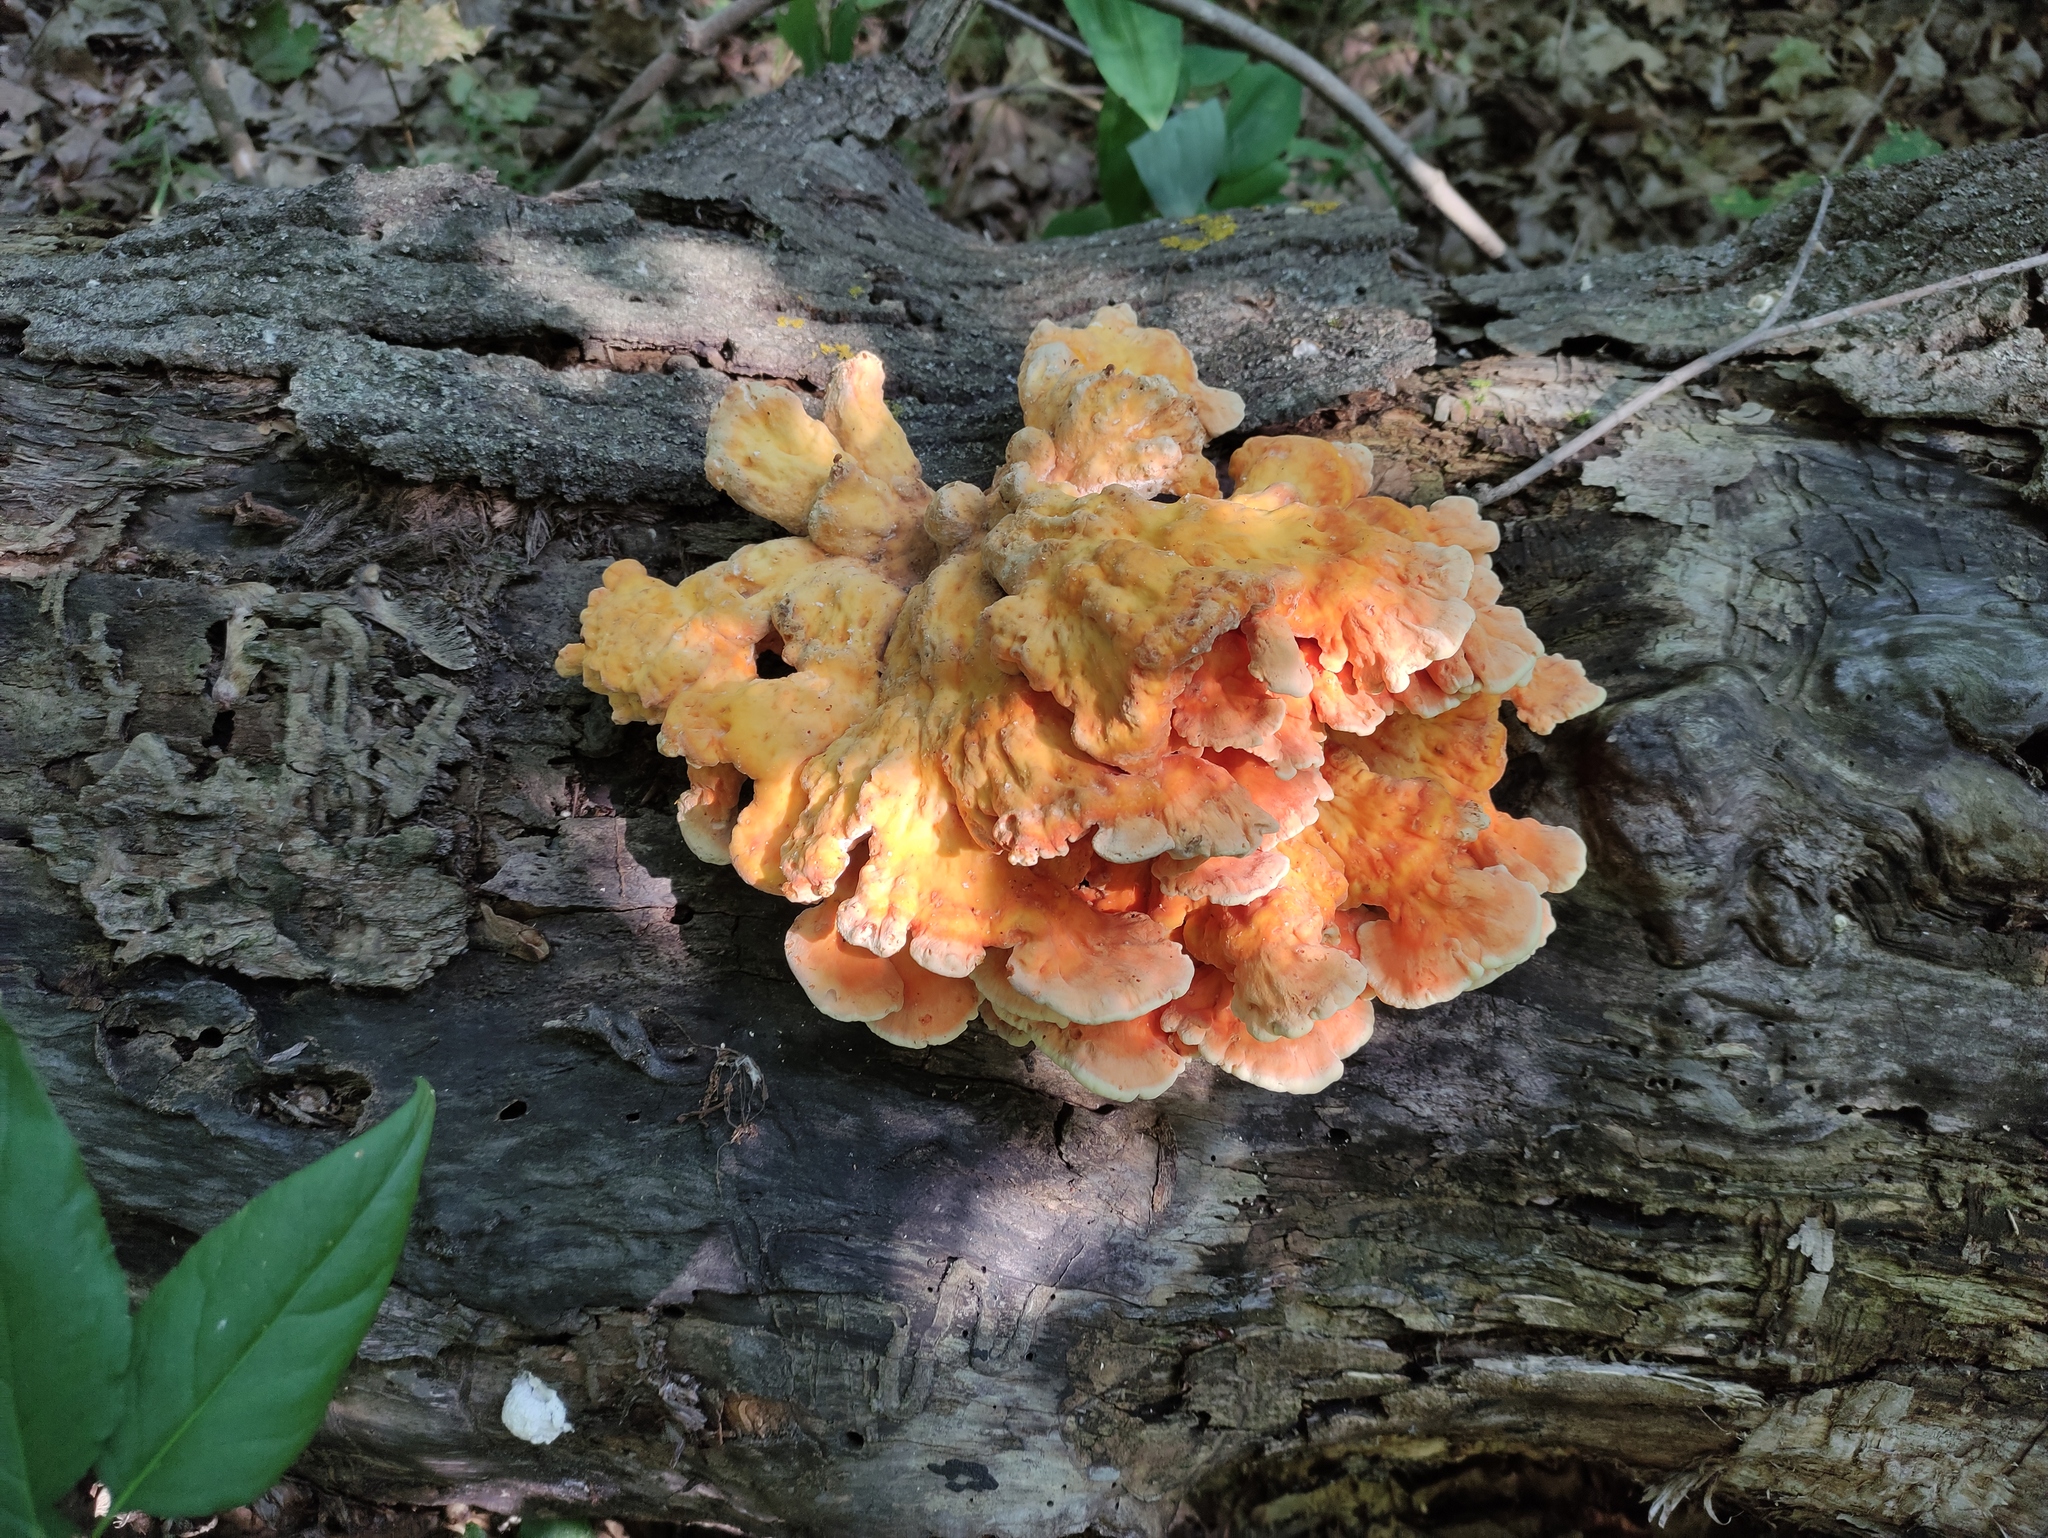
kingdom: Fungi
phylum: Basidiomycota
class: Agaricomycetes
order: Polyporales
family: Laetiporaceae
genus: Laetiporus
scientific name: Laetiporus sulphureus
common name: Chicken of the woods
